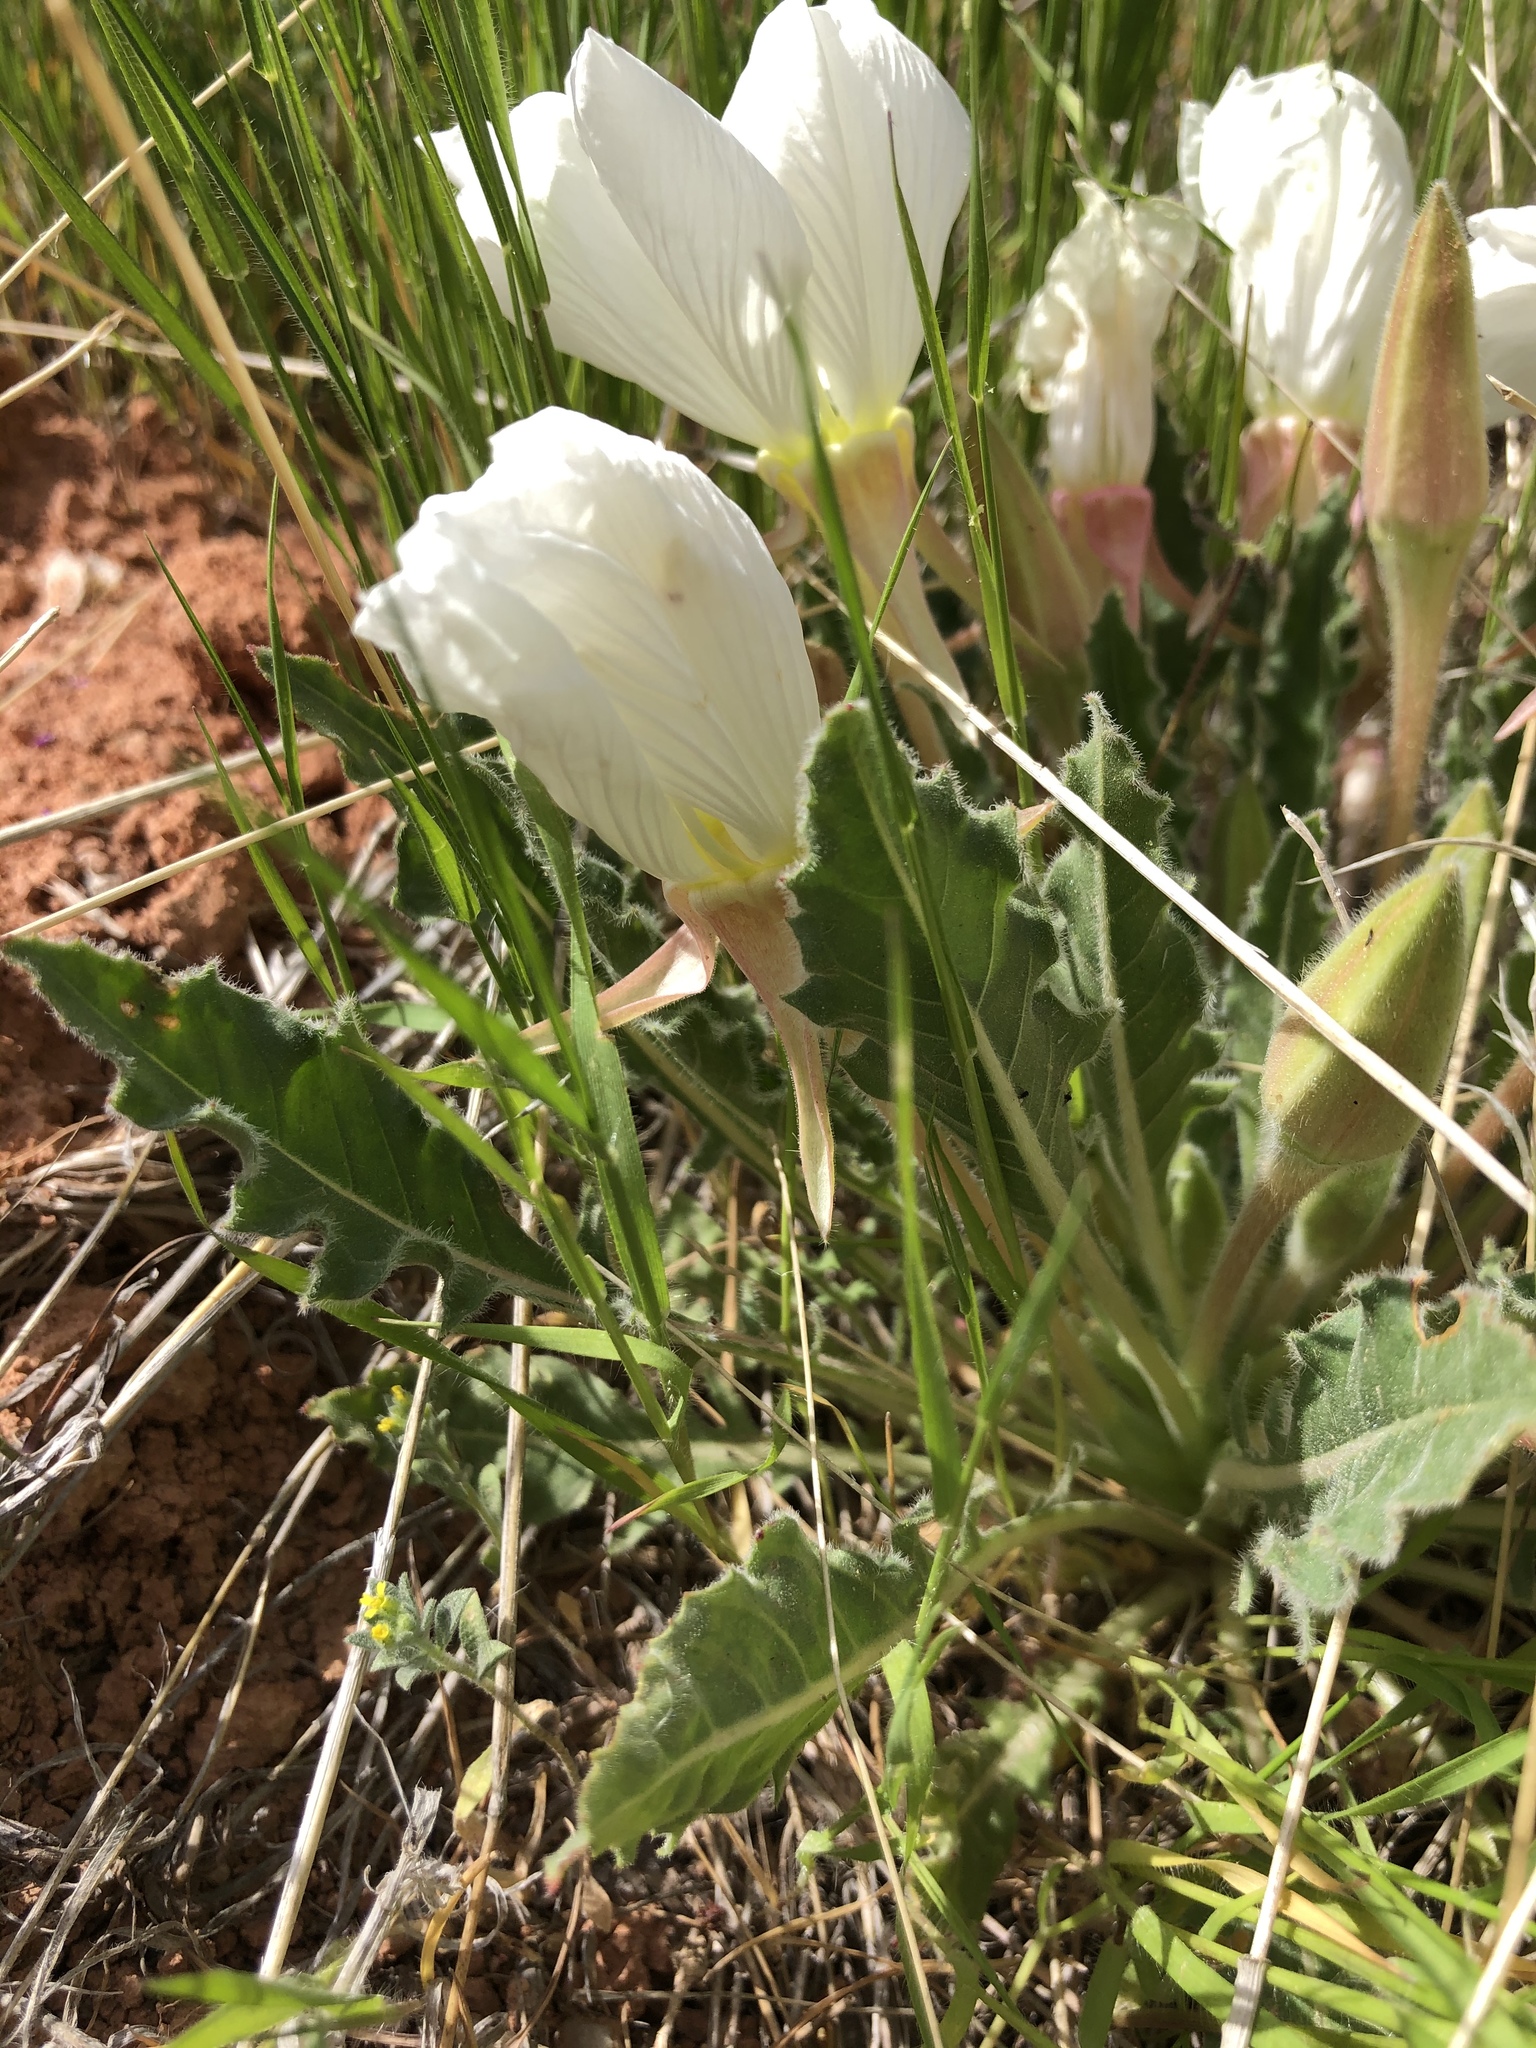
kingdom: Plantae
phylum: Tracheophyta
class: Magnoliopsida
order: Myrtales
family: Onagraceae
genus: Oenothera
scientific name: Oenothera cespitosa
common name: Tufted evening-primrose
